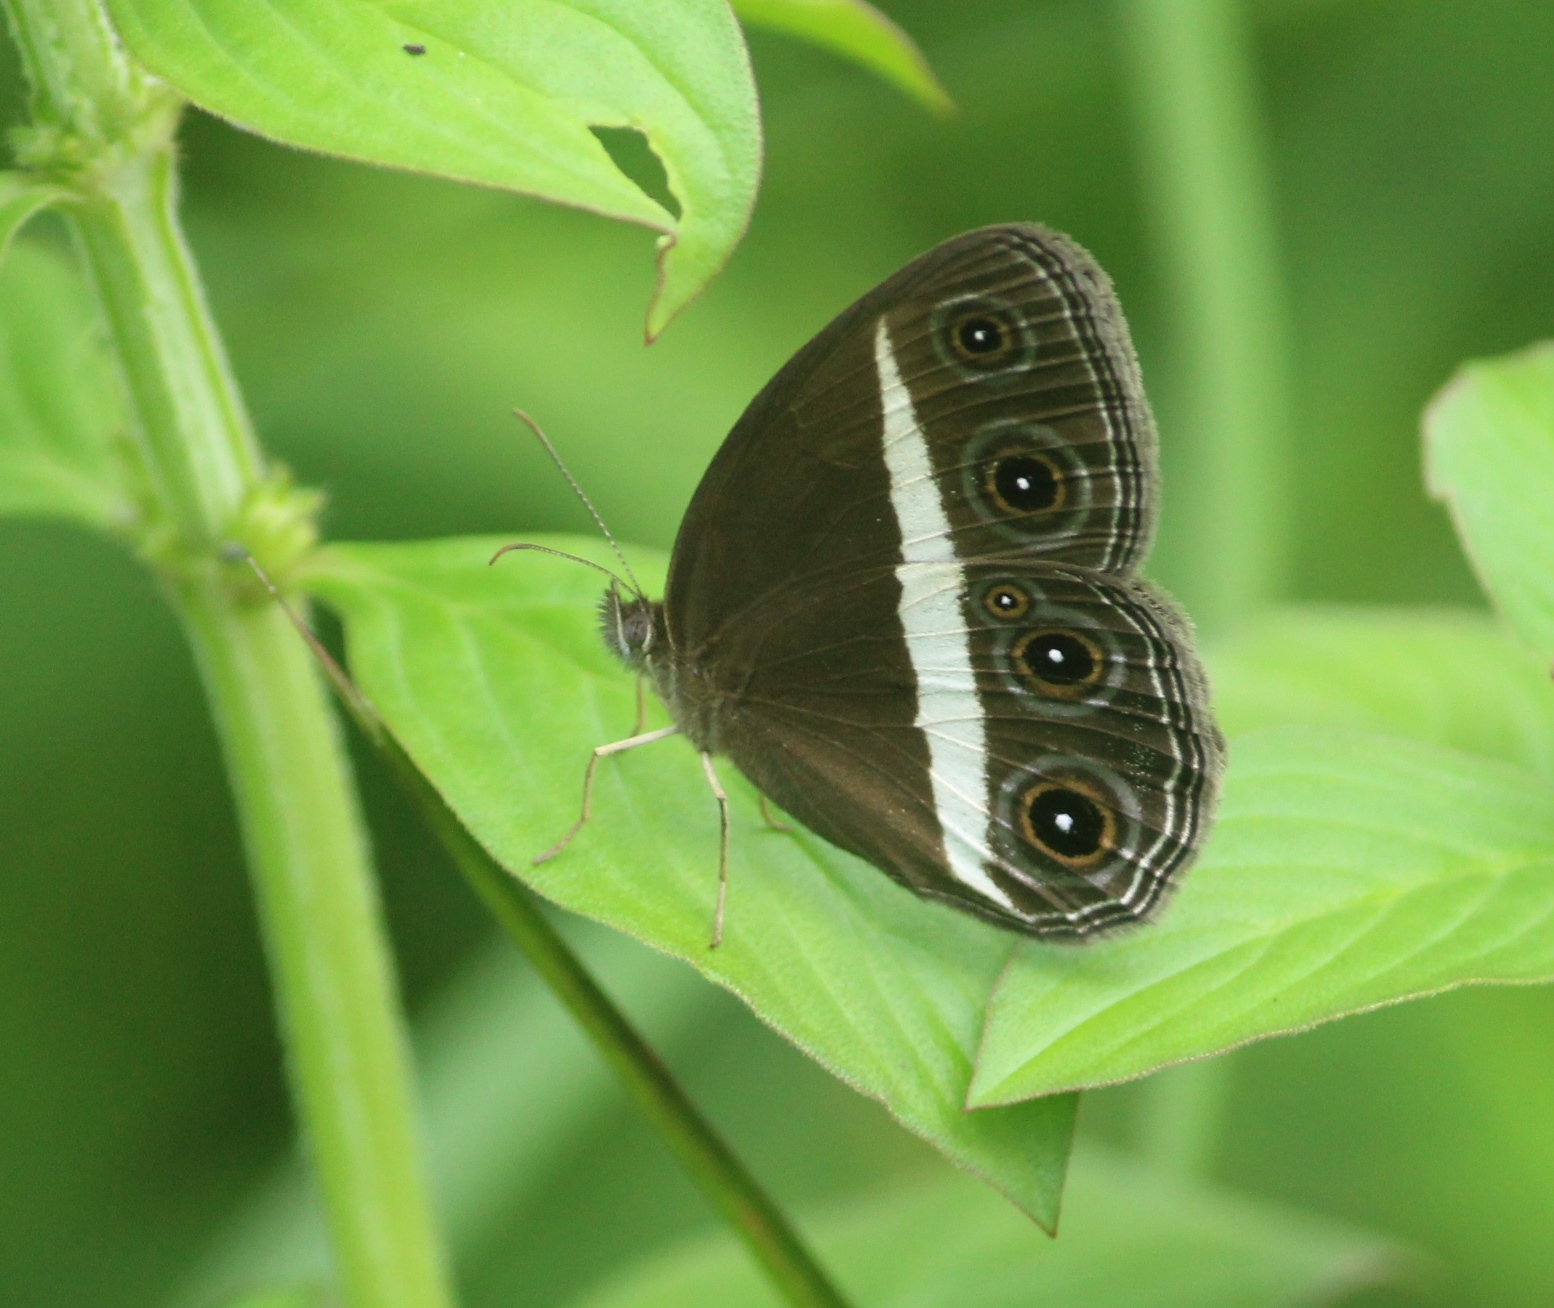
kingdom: Animalia
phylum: Arthropoda
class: Insecta
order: Lepidoptera
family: Nymphalidae
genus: Orsotriaena
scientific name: Orsotriaena medus
